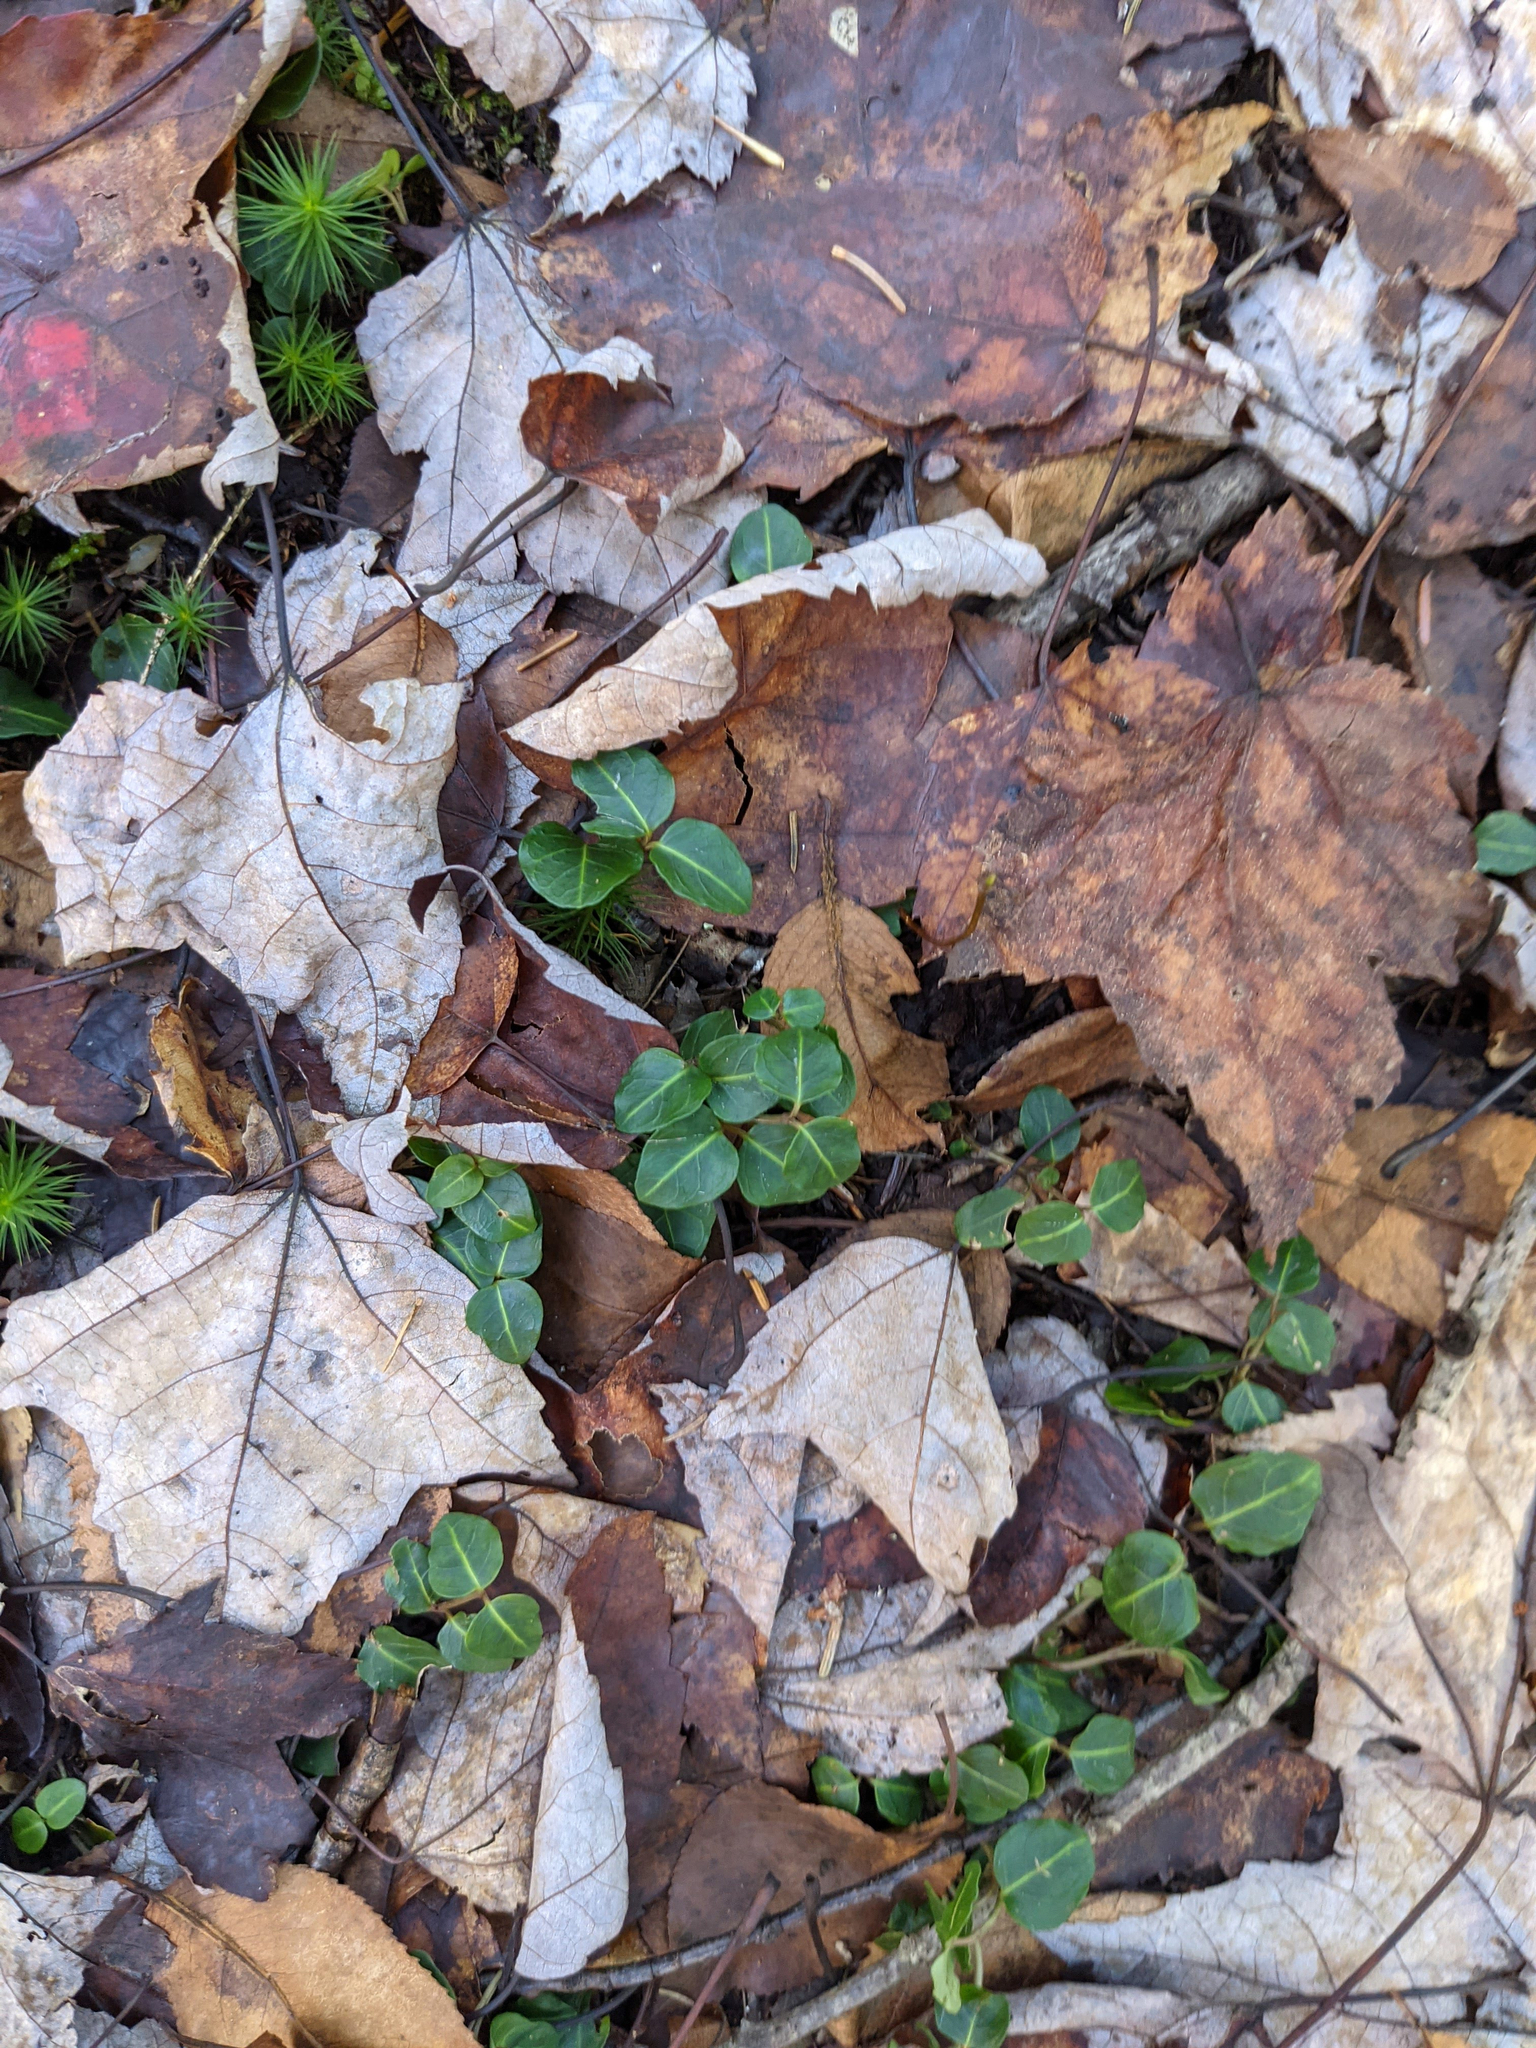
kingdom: Plantae
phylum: Tracheophyta
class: Magnoliopsida
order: Gentianales
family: Rubiaceae
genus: Mitchella
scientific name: Mitchella repens
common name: Partridge-berry
